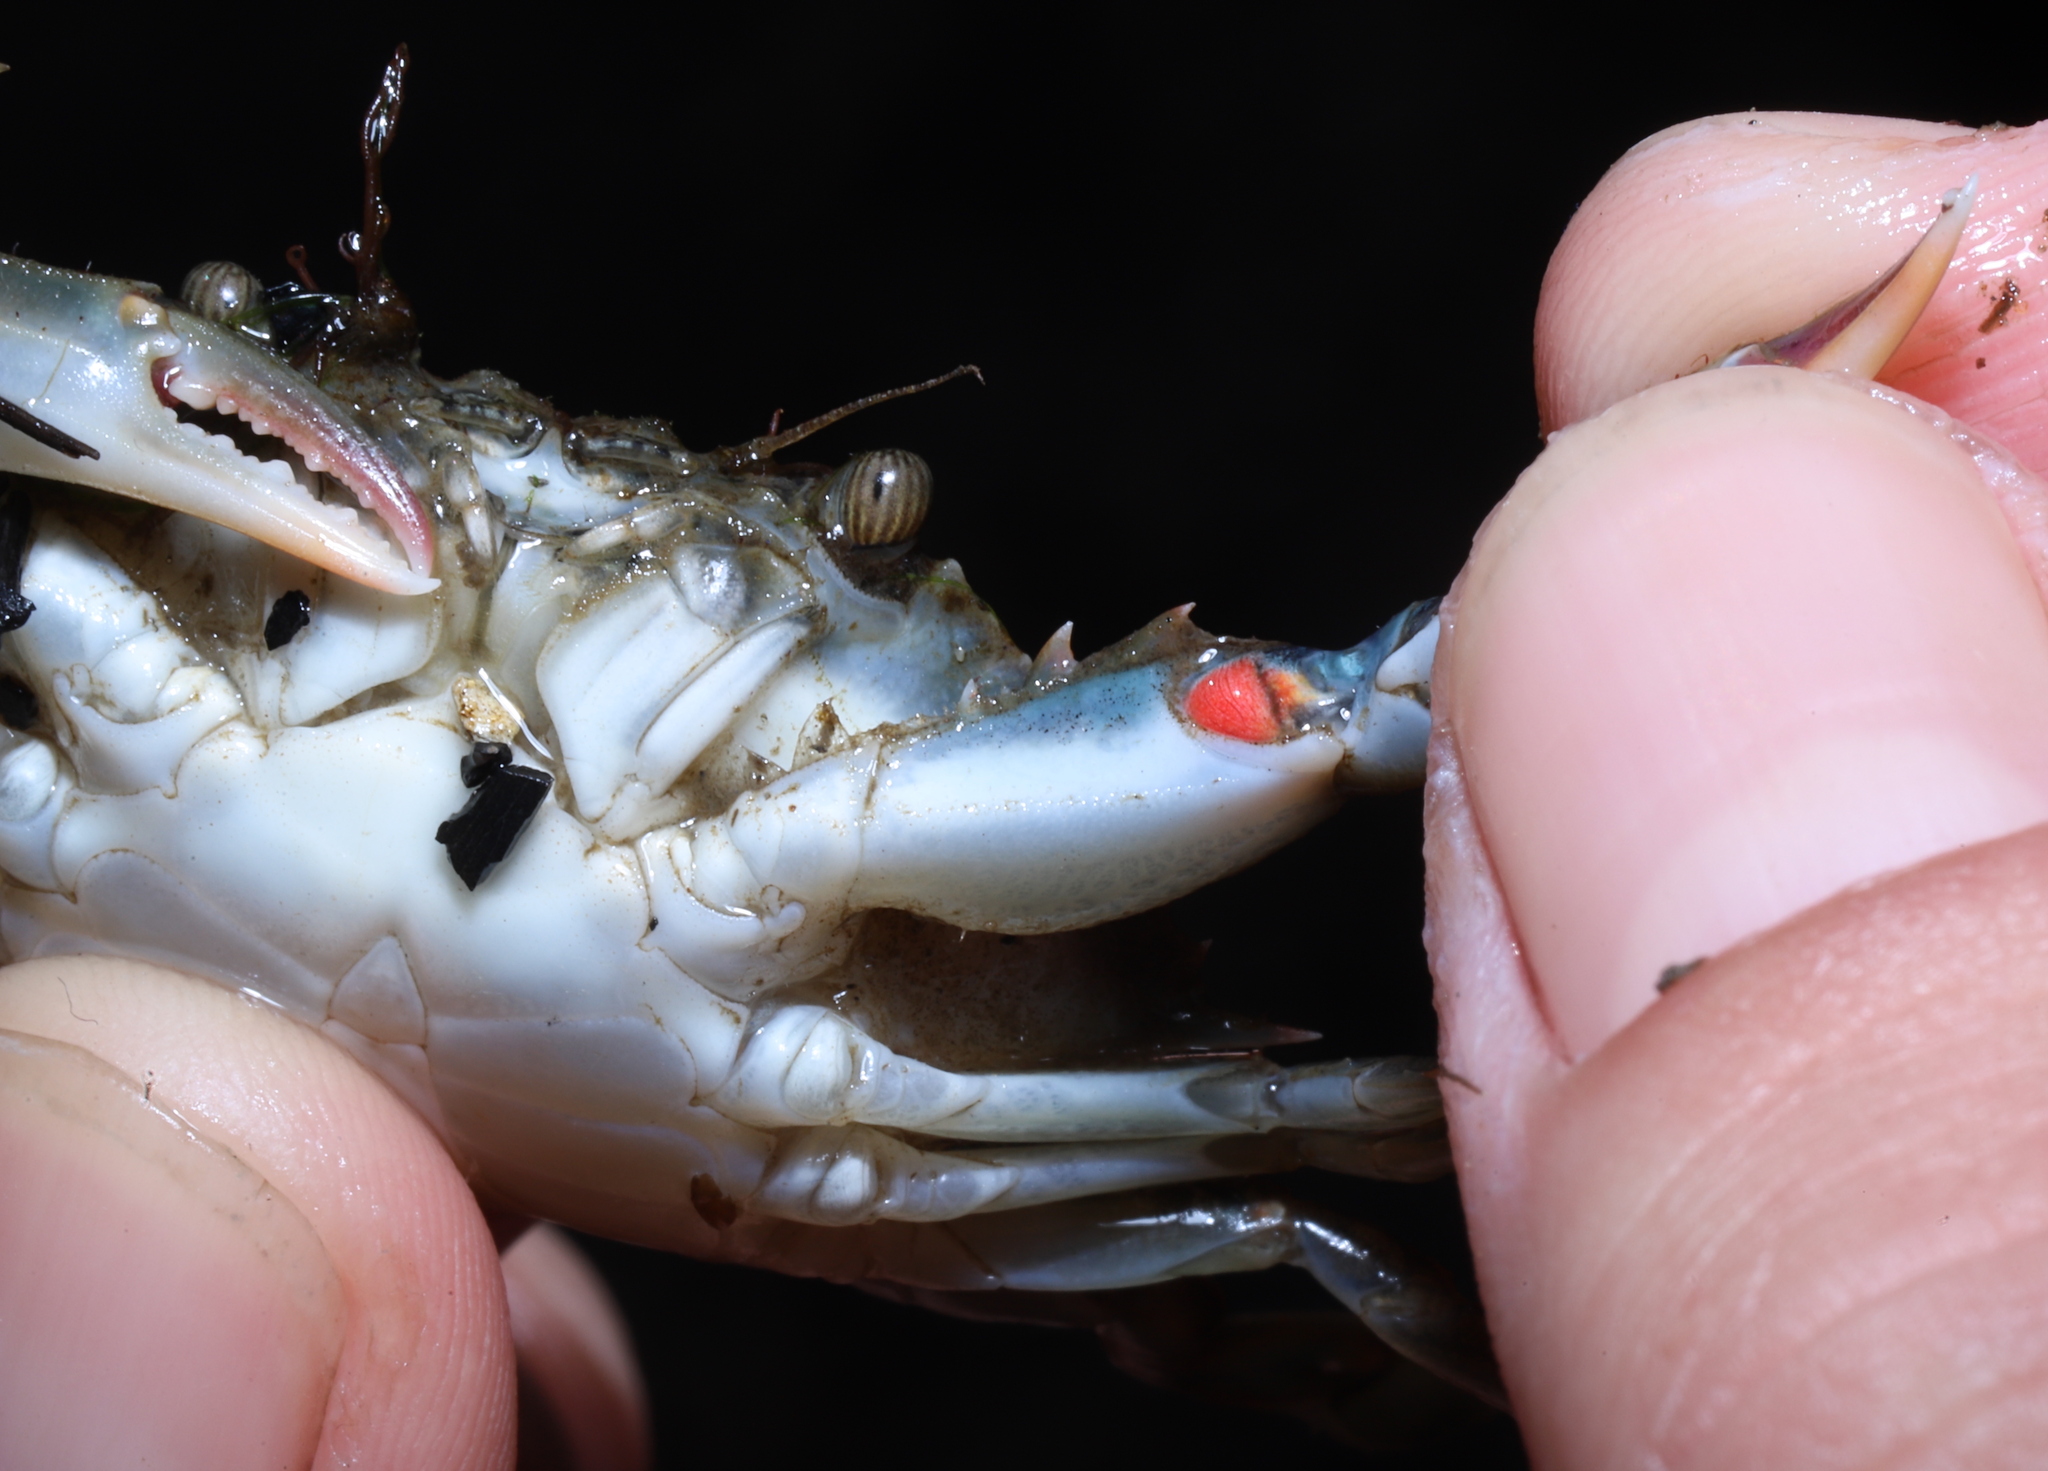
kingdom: Animalia
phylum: Arthropoda
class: Malacostraca
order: Decapoda
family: Portunidae
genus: Callinectes
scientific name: Callinectes sapidus
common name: Blue crab
